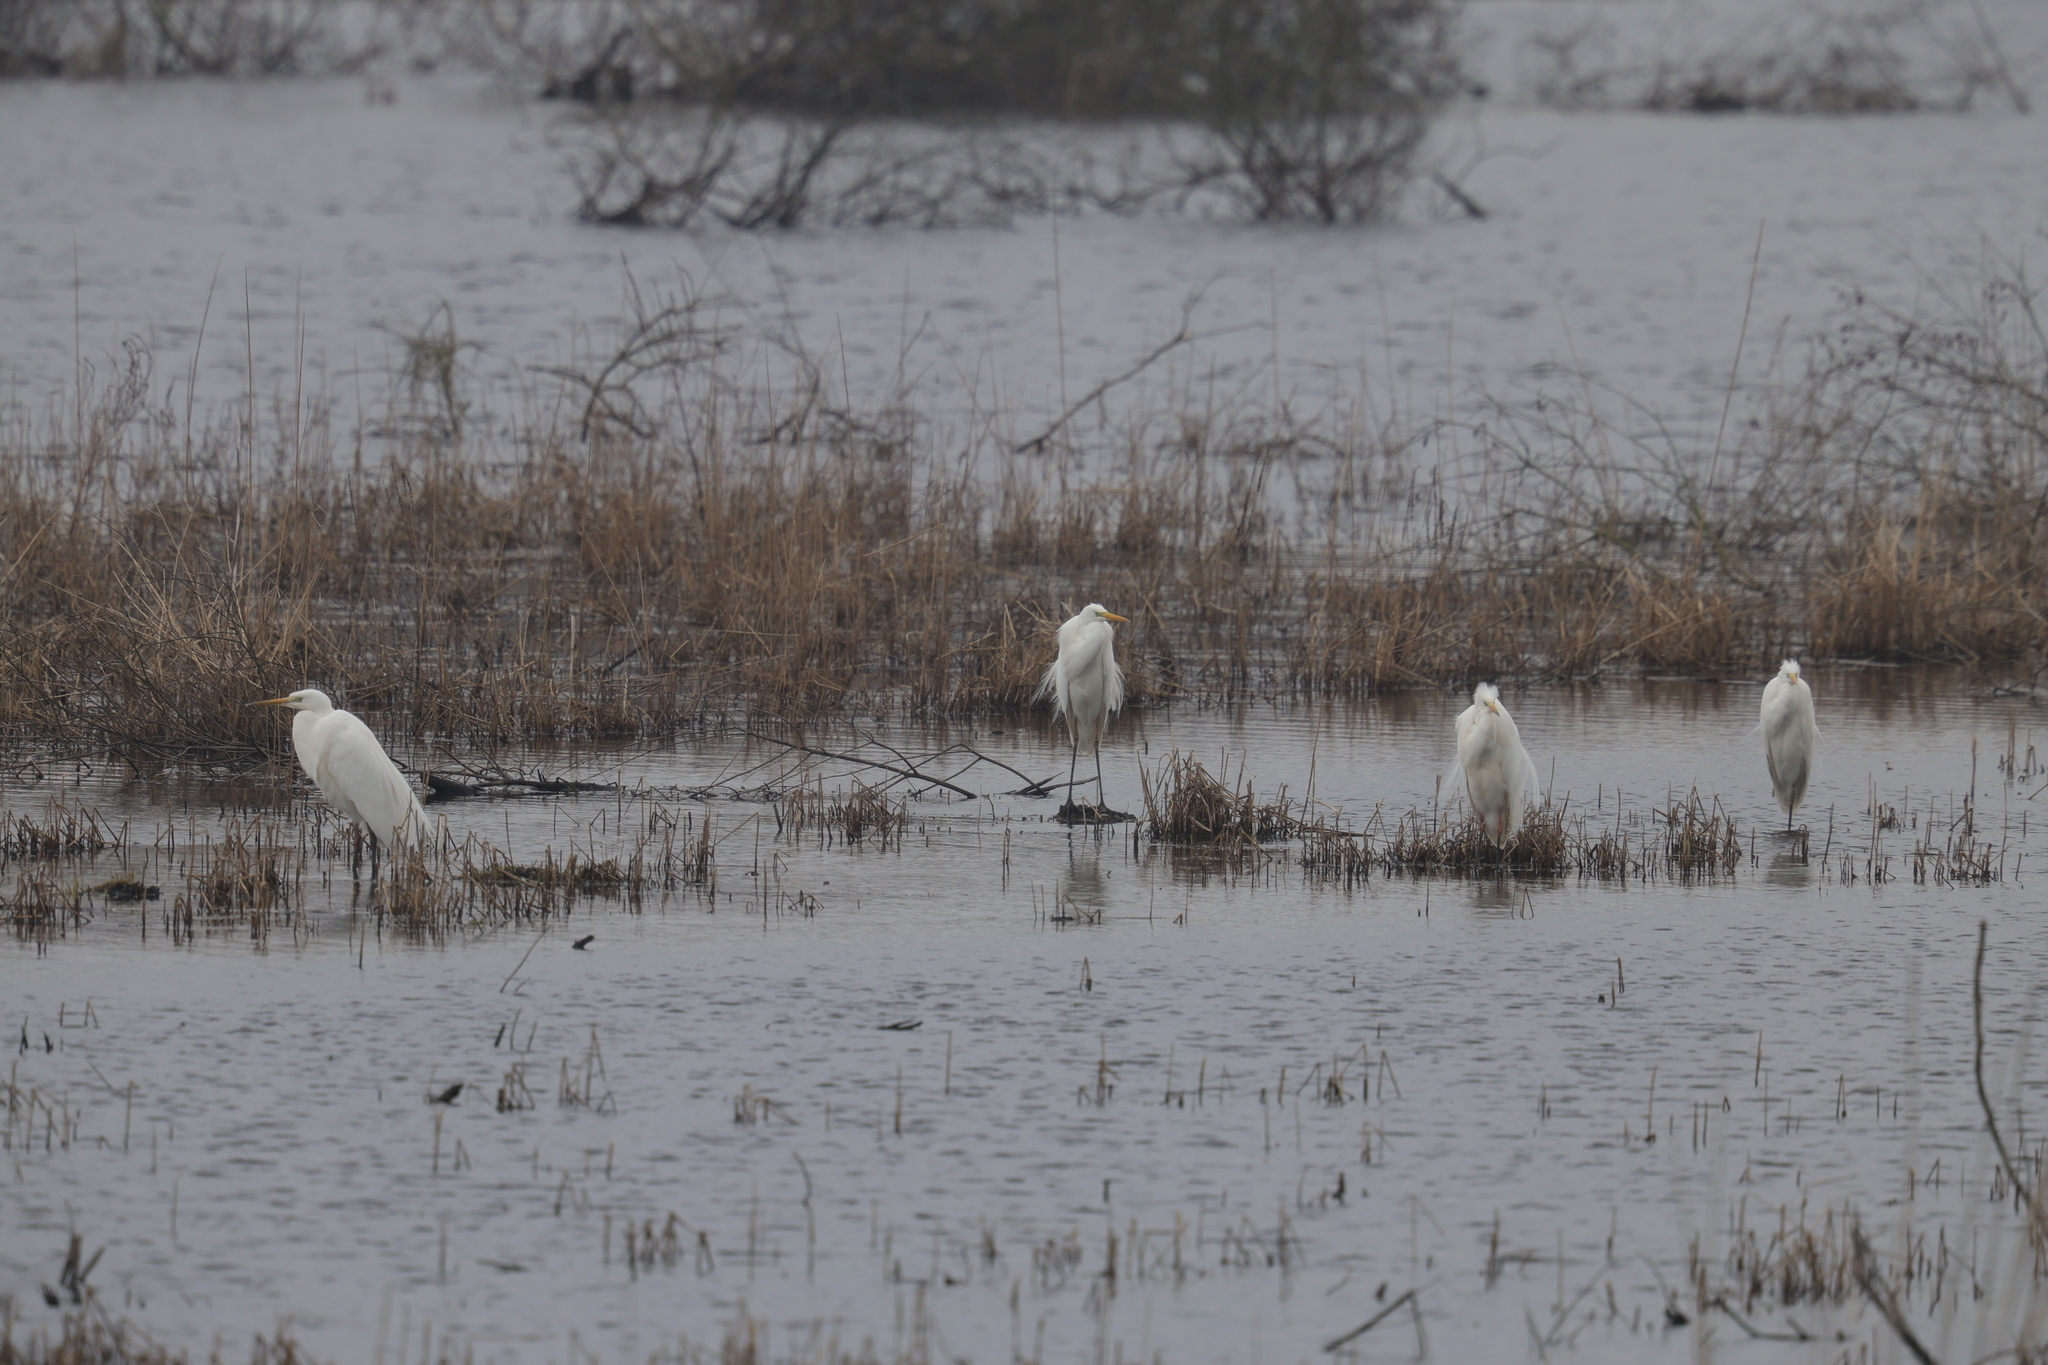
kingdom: Animalia
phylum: Chordata
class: Aves
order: Pelecaniformes
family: Ardeidae
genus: Ardea
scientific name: Ardea alba
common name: Great egret
